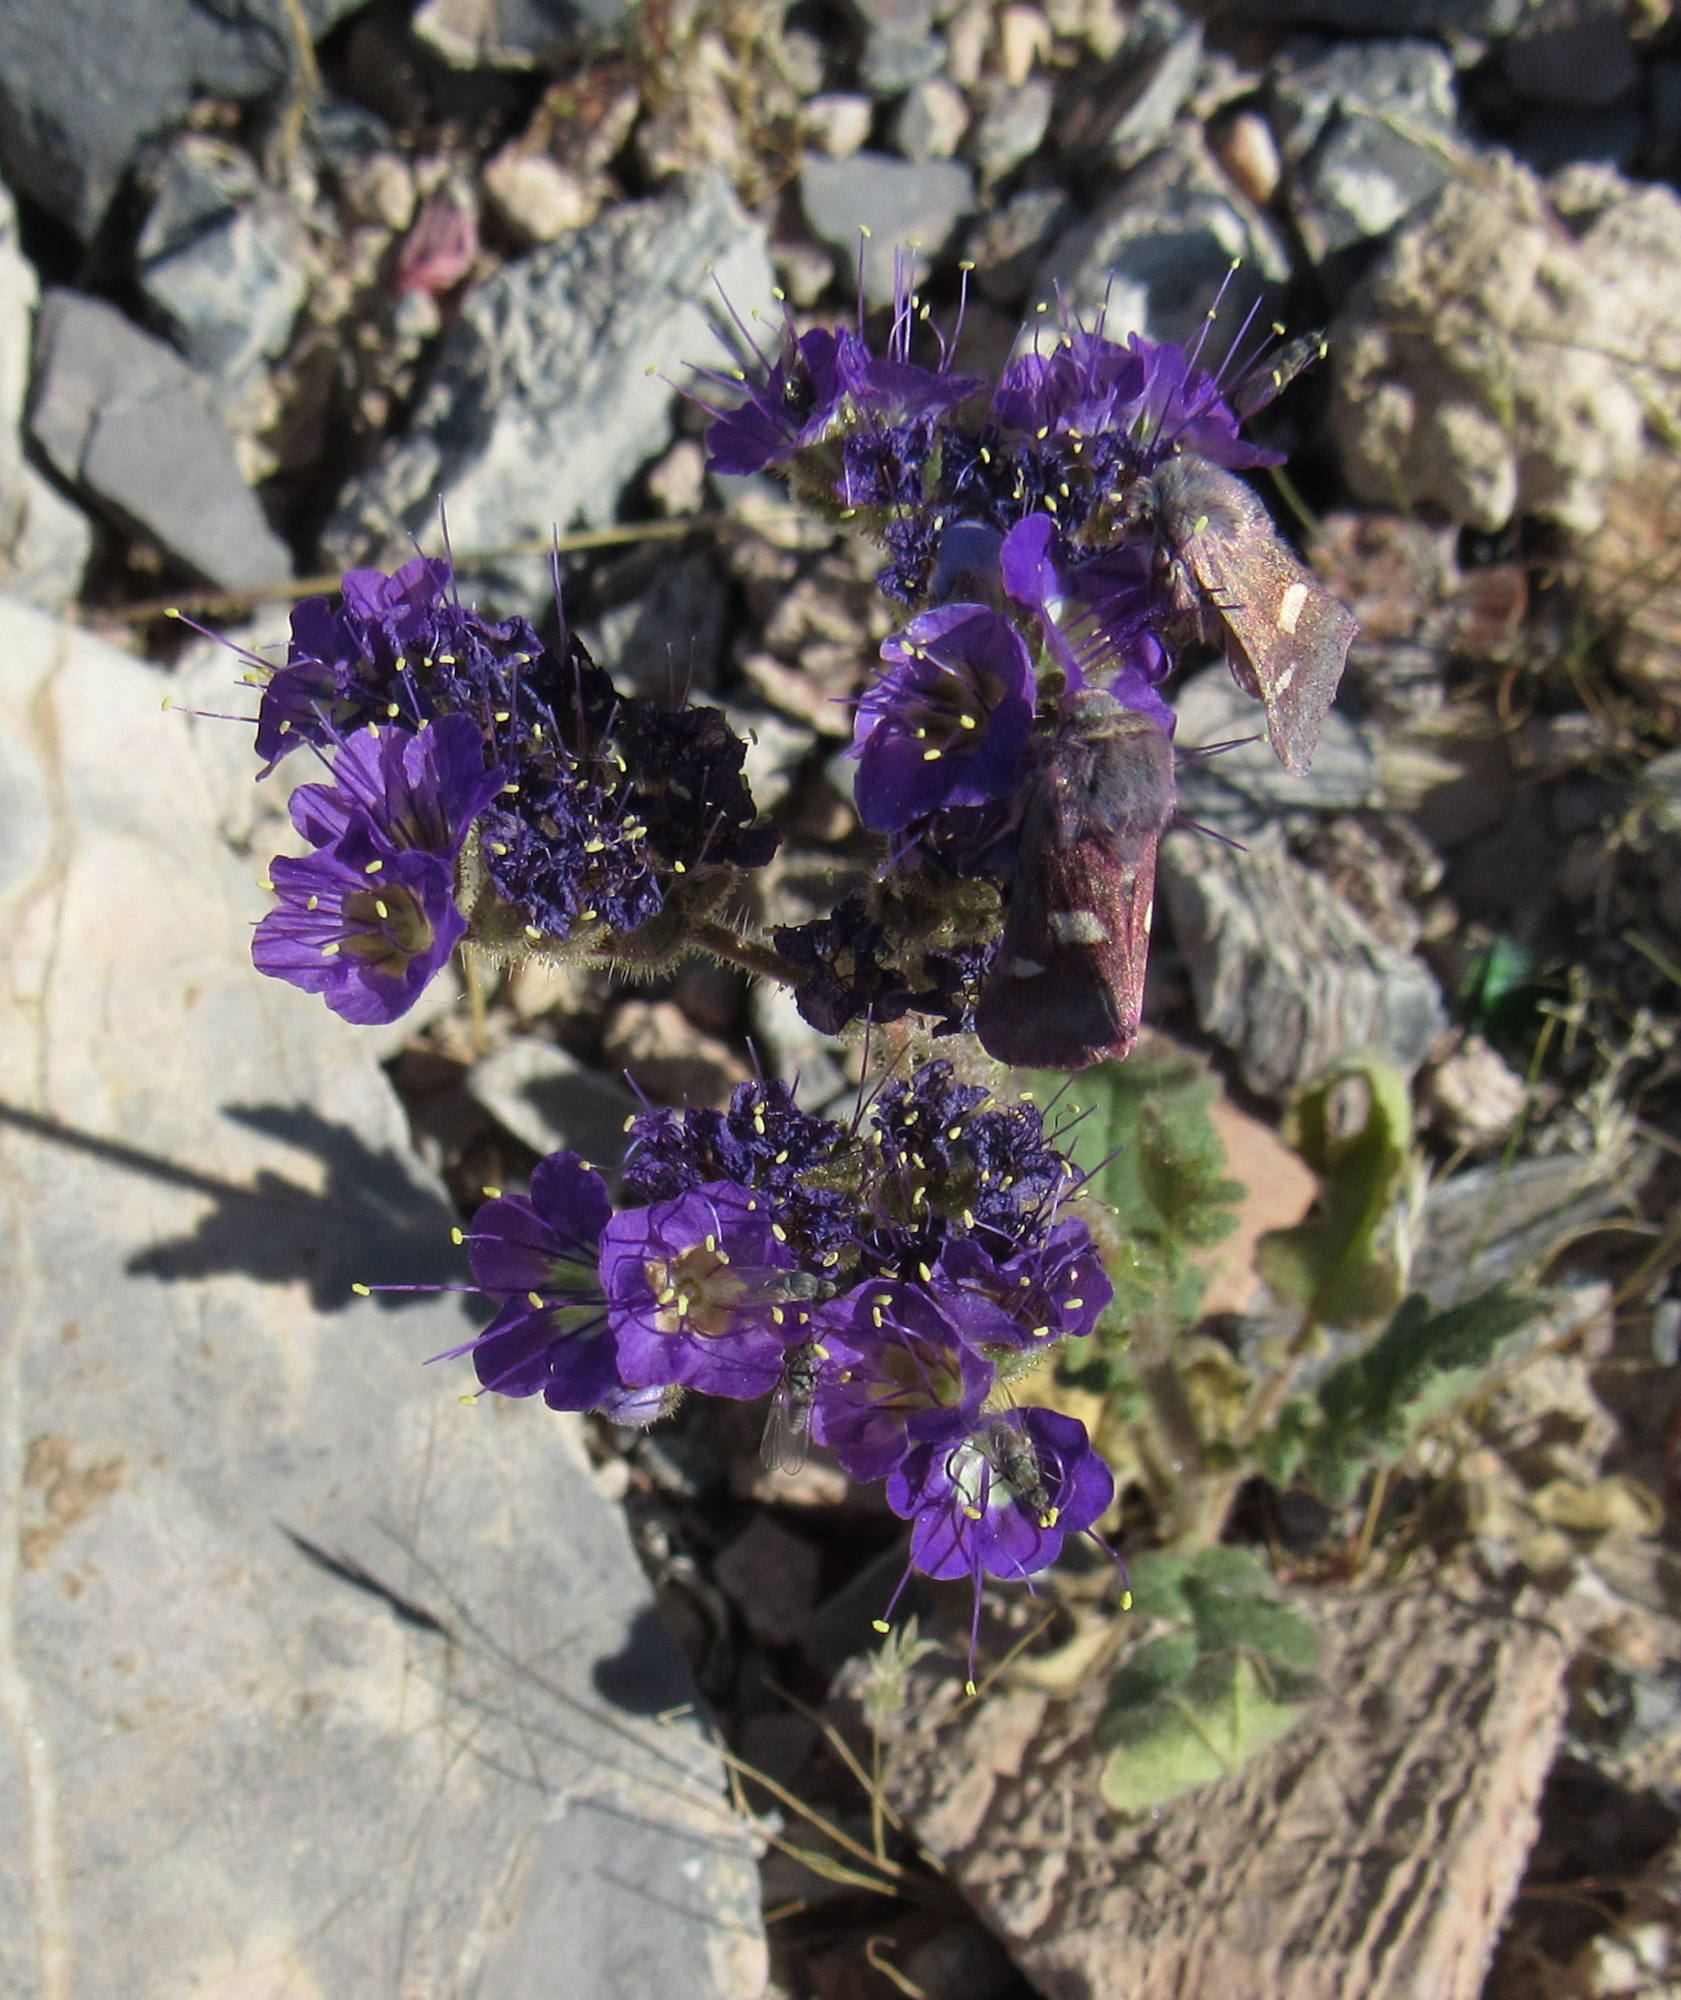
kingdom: Plantae
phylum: Tracheophyta
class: Magnoliopsida
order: Boraginales
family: Hydrophyllaceae
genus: Phacelia
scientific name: Phacelia crenulata
